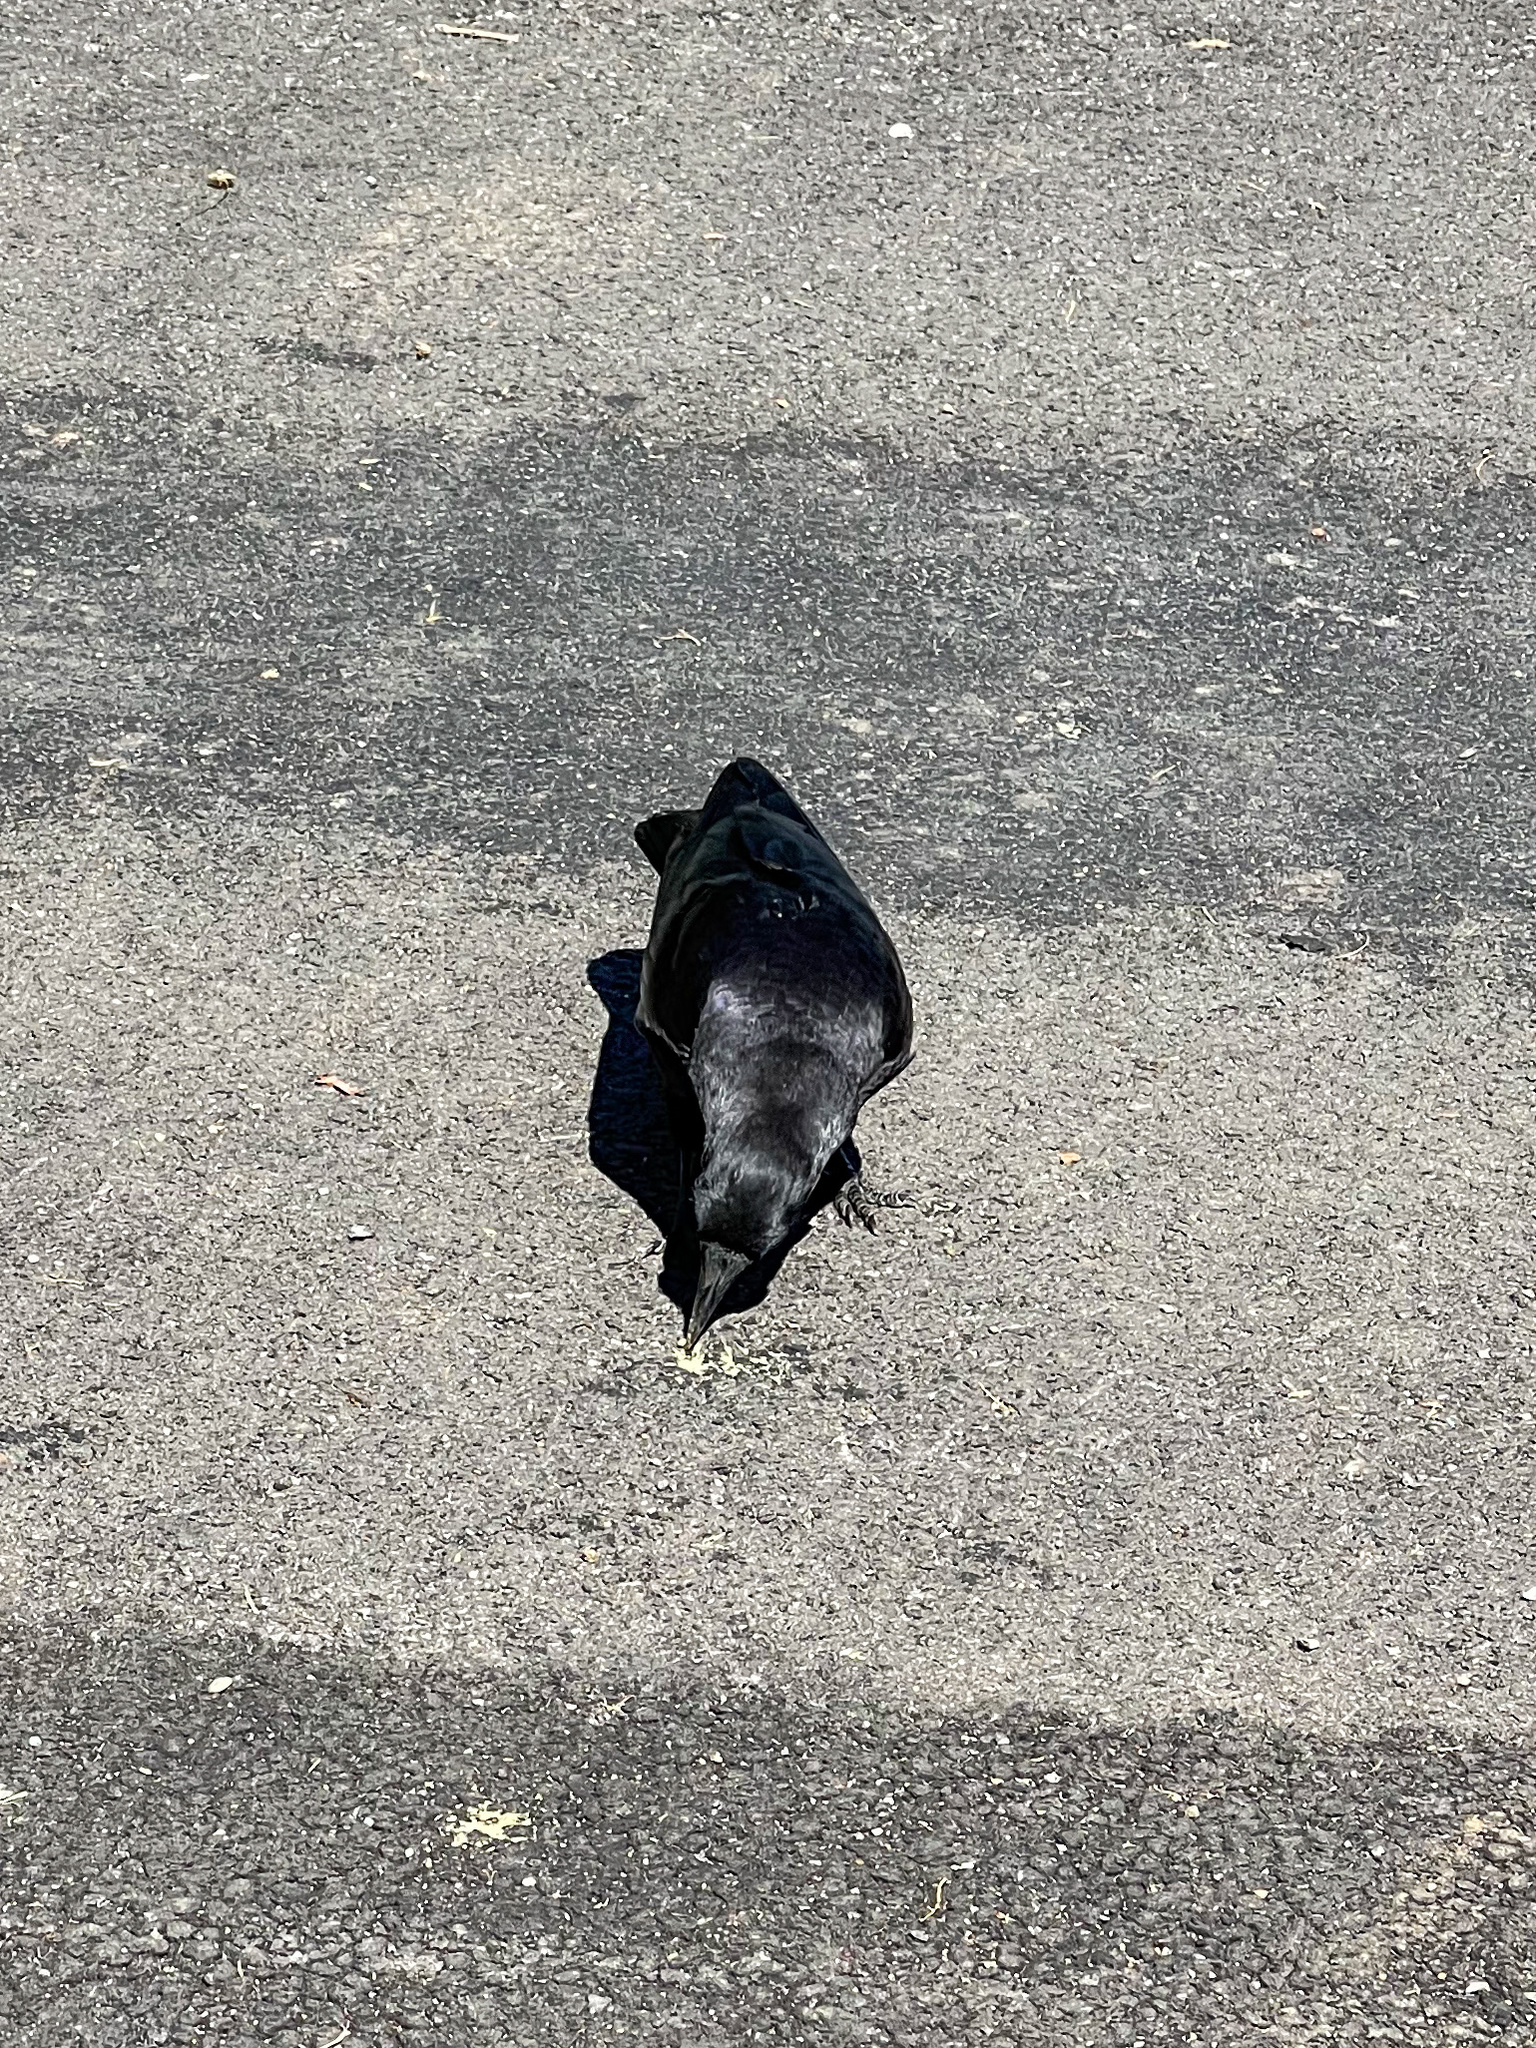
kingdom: Animalia
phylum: Chordata
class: Aves
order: Passeriformes
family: Corvidae
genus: Corvus
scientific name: Corvus brachyrhynchos
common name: American crow
